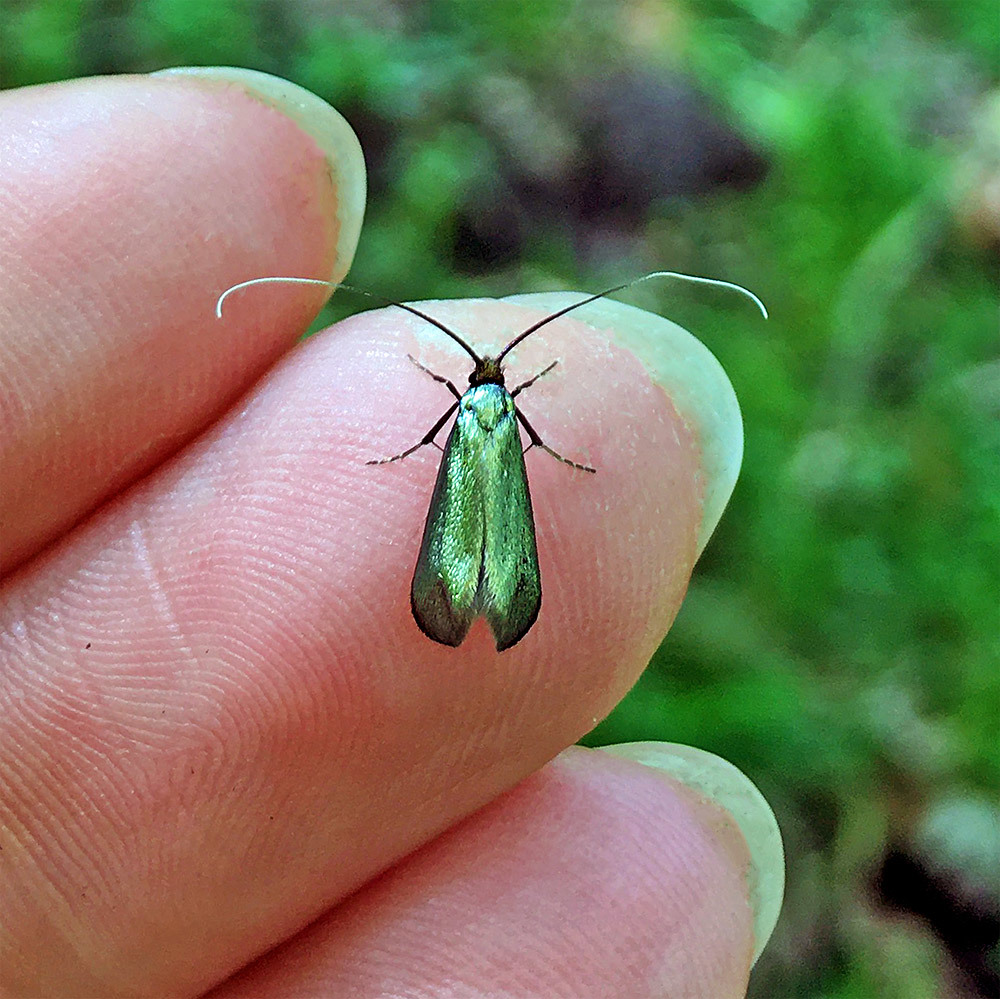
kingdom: Animalia
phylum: Arthropoda
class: Insecta
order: Lepidoptera
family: Adelidae
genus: Adela
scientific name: Adela viridella
